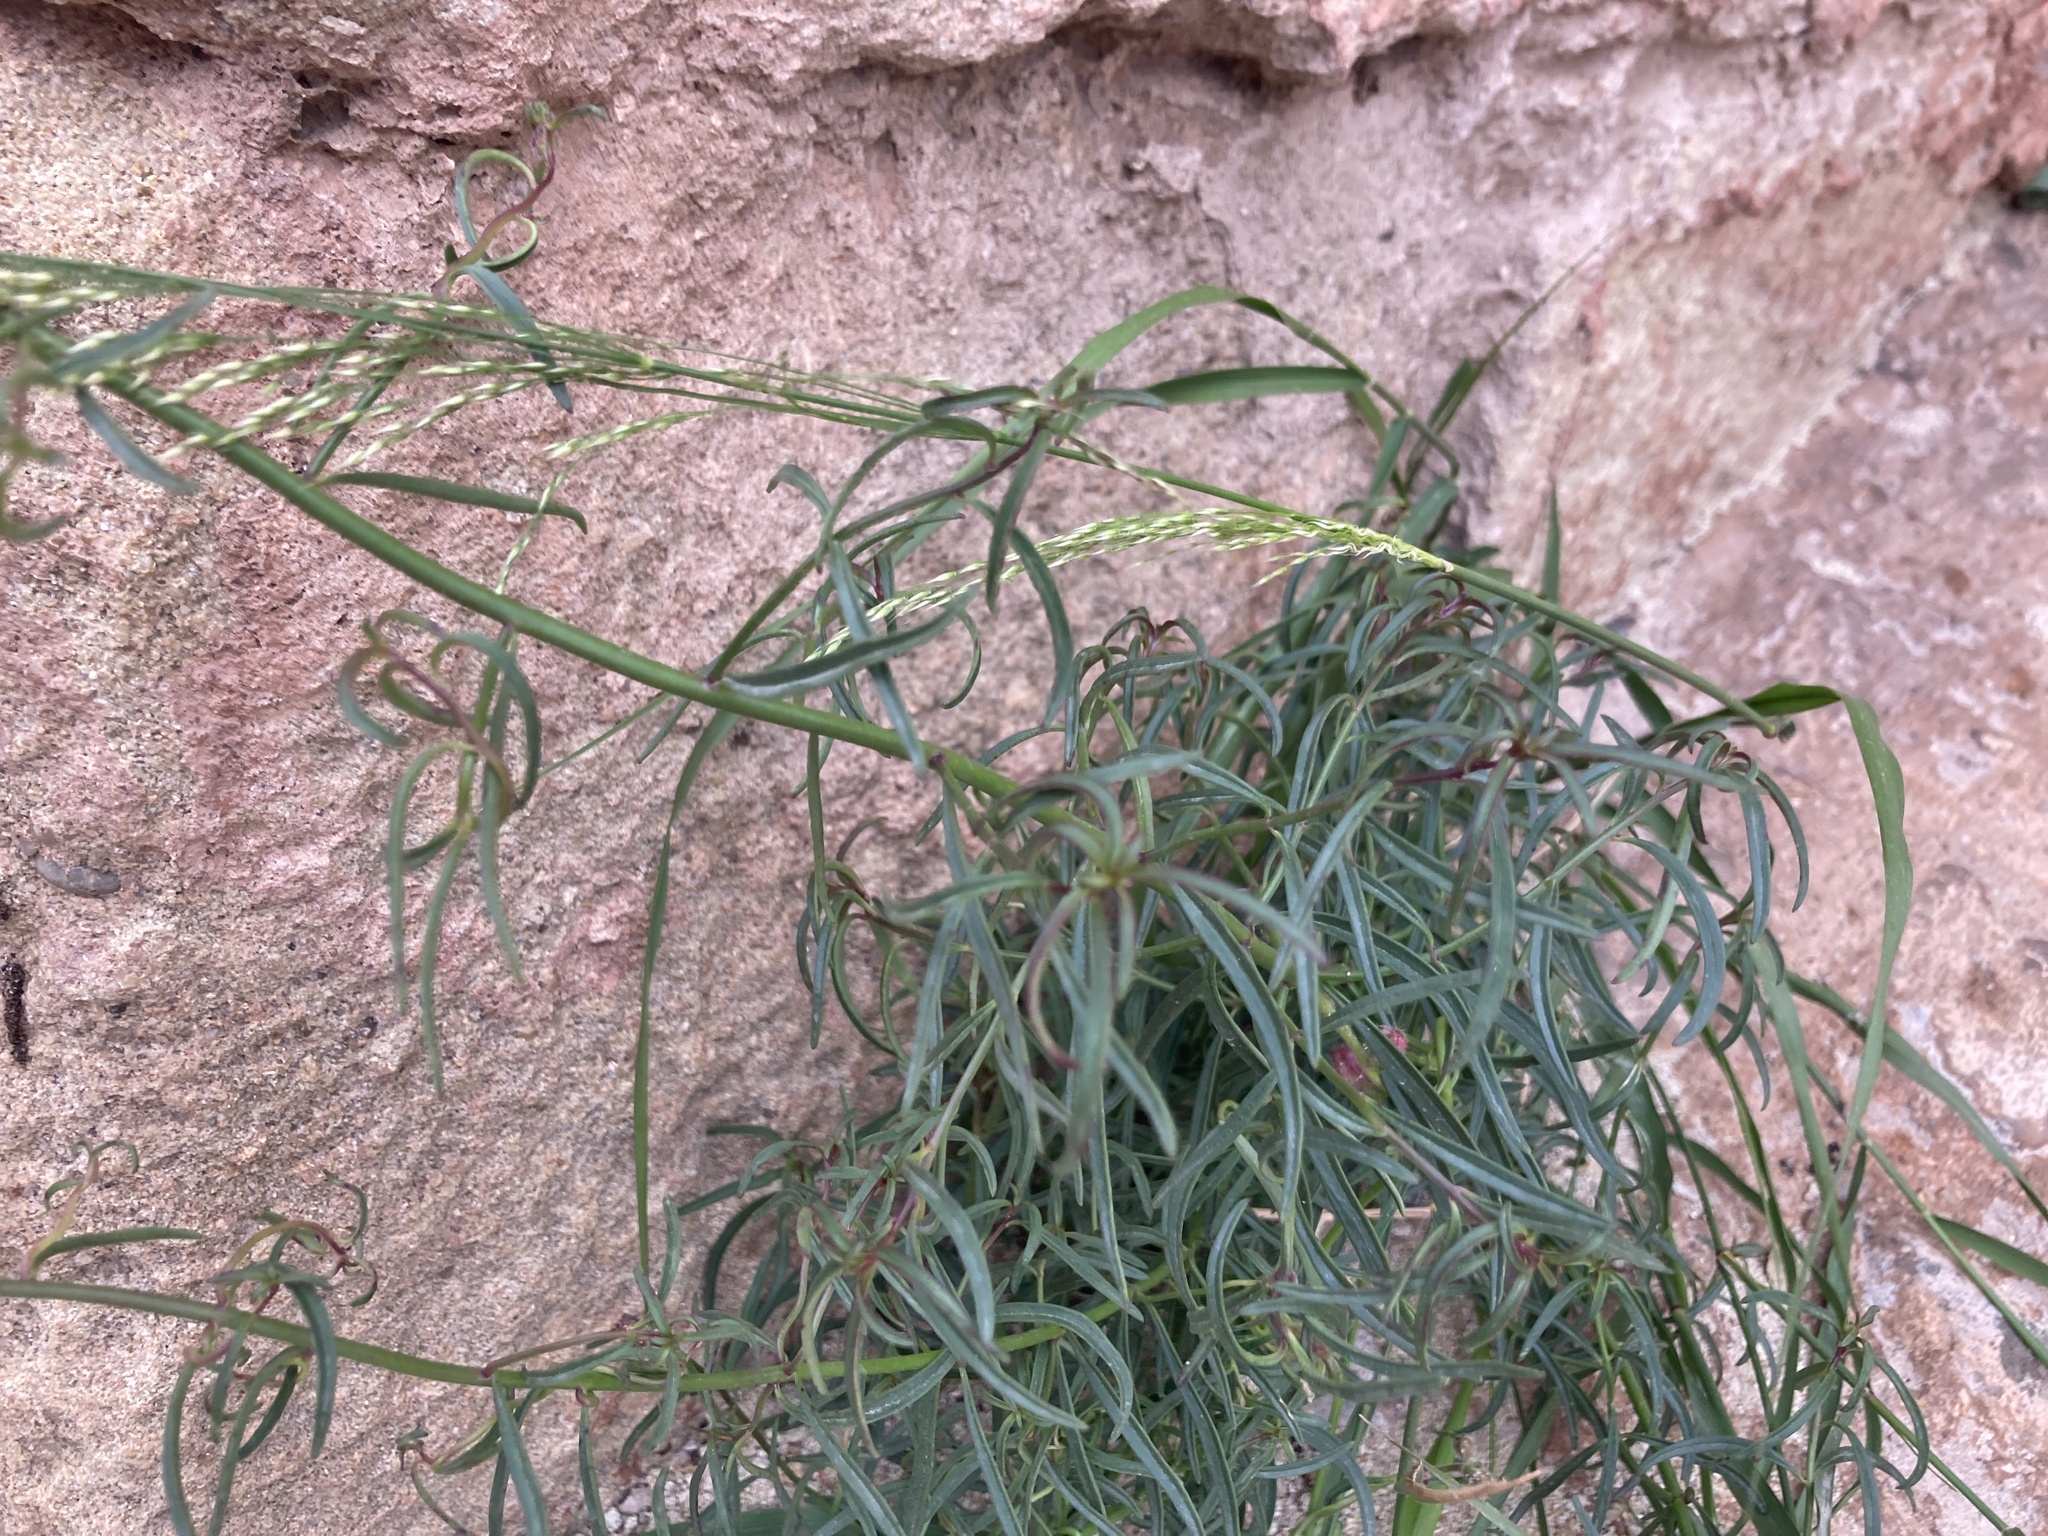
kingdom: Plantae
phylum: Tracheophyta
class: Magnoliopsida
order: Lamiales
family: Plantaginaceae
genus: Antirrhinum
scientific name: Antirrhinum litigiosum
